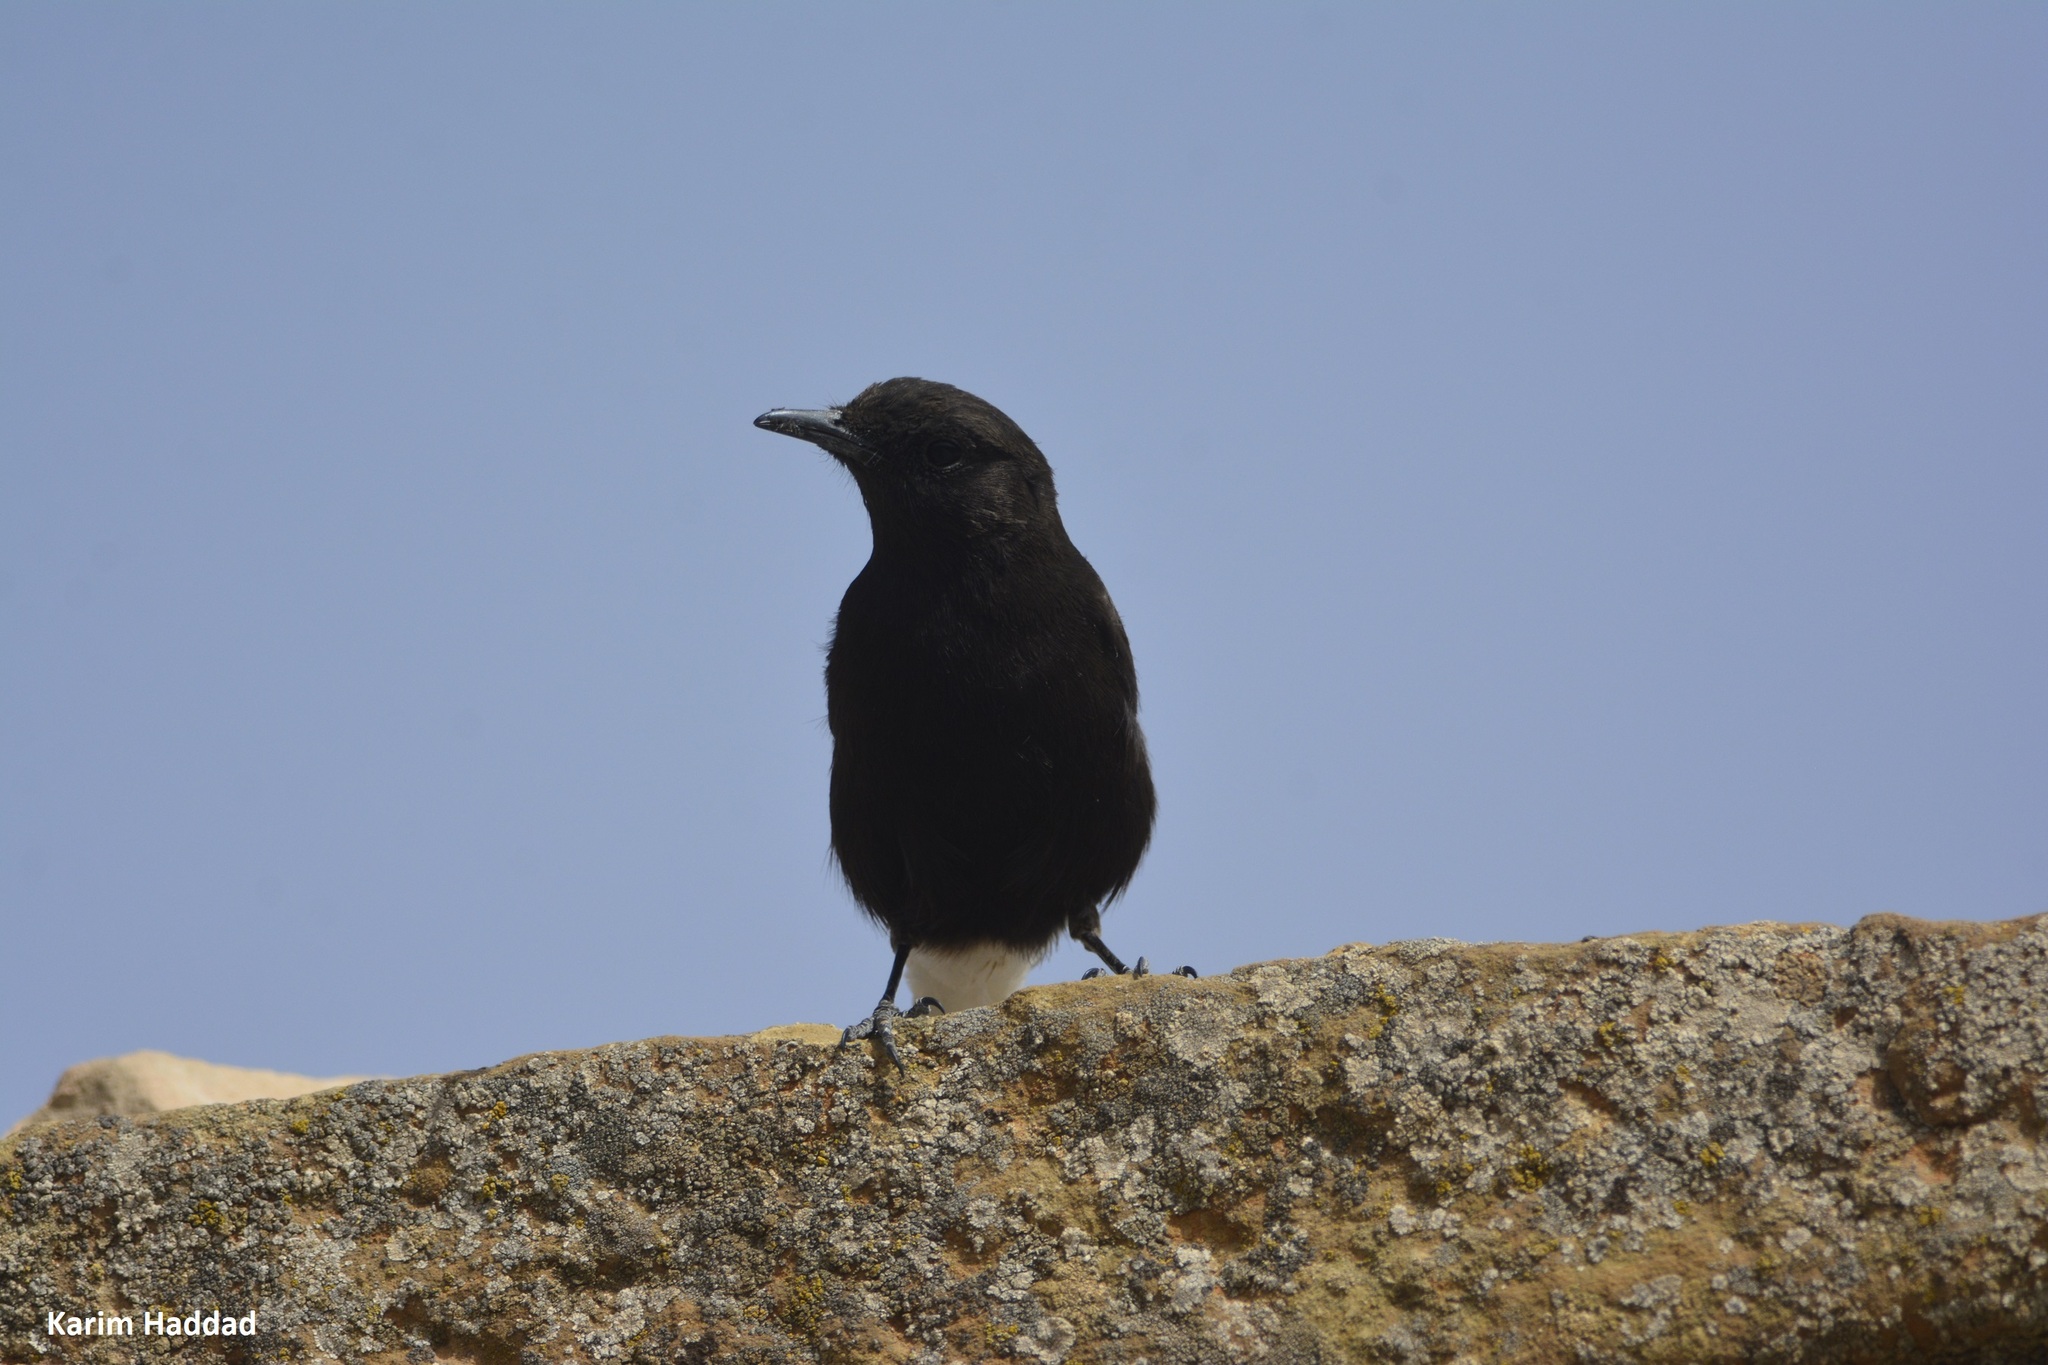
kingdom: Animalia
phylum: Chordata
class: Aves
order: Passeriformes
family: Muscicapidae
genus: Oenanthe
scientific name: Oenanthe leucura
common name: Black wheatear
